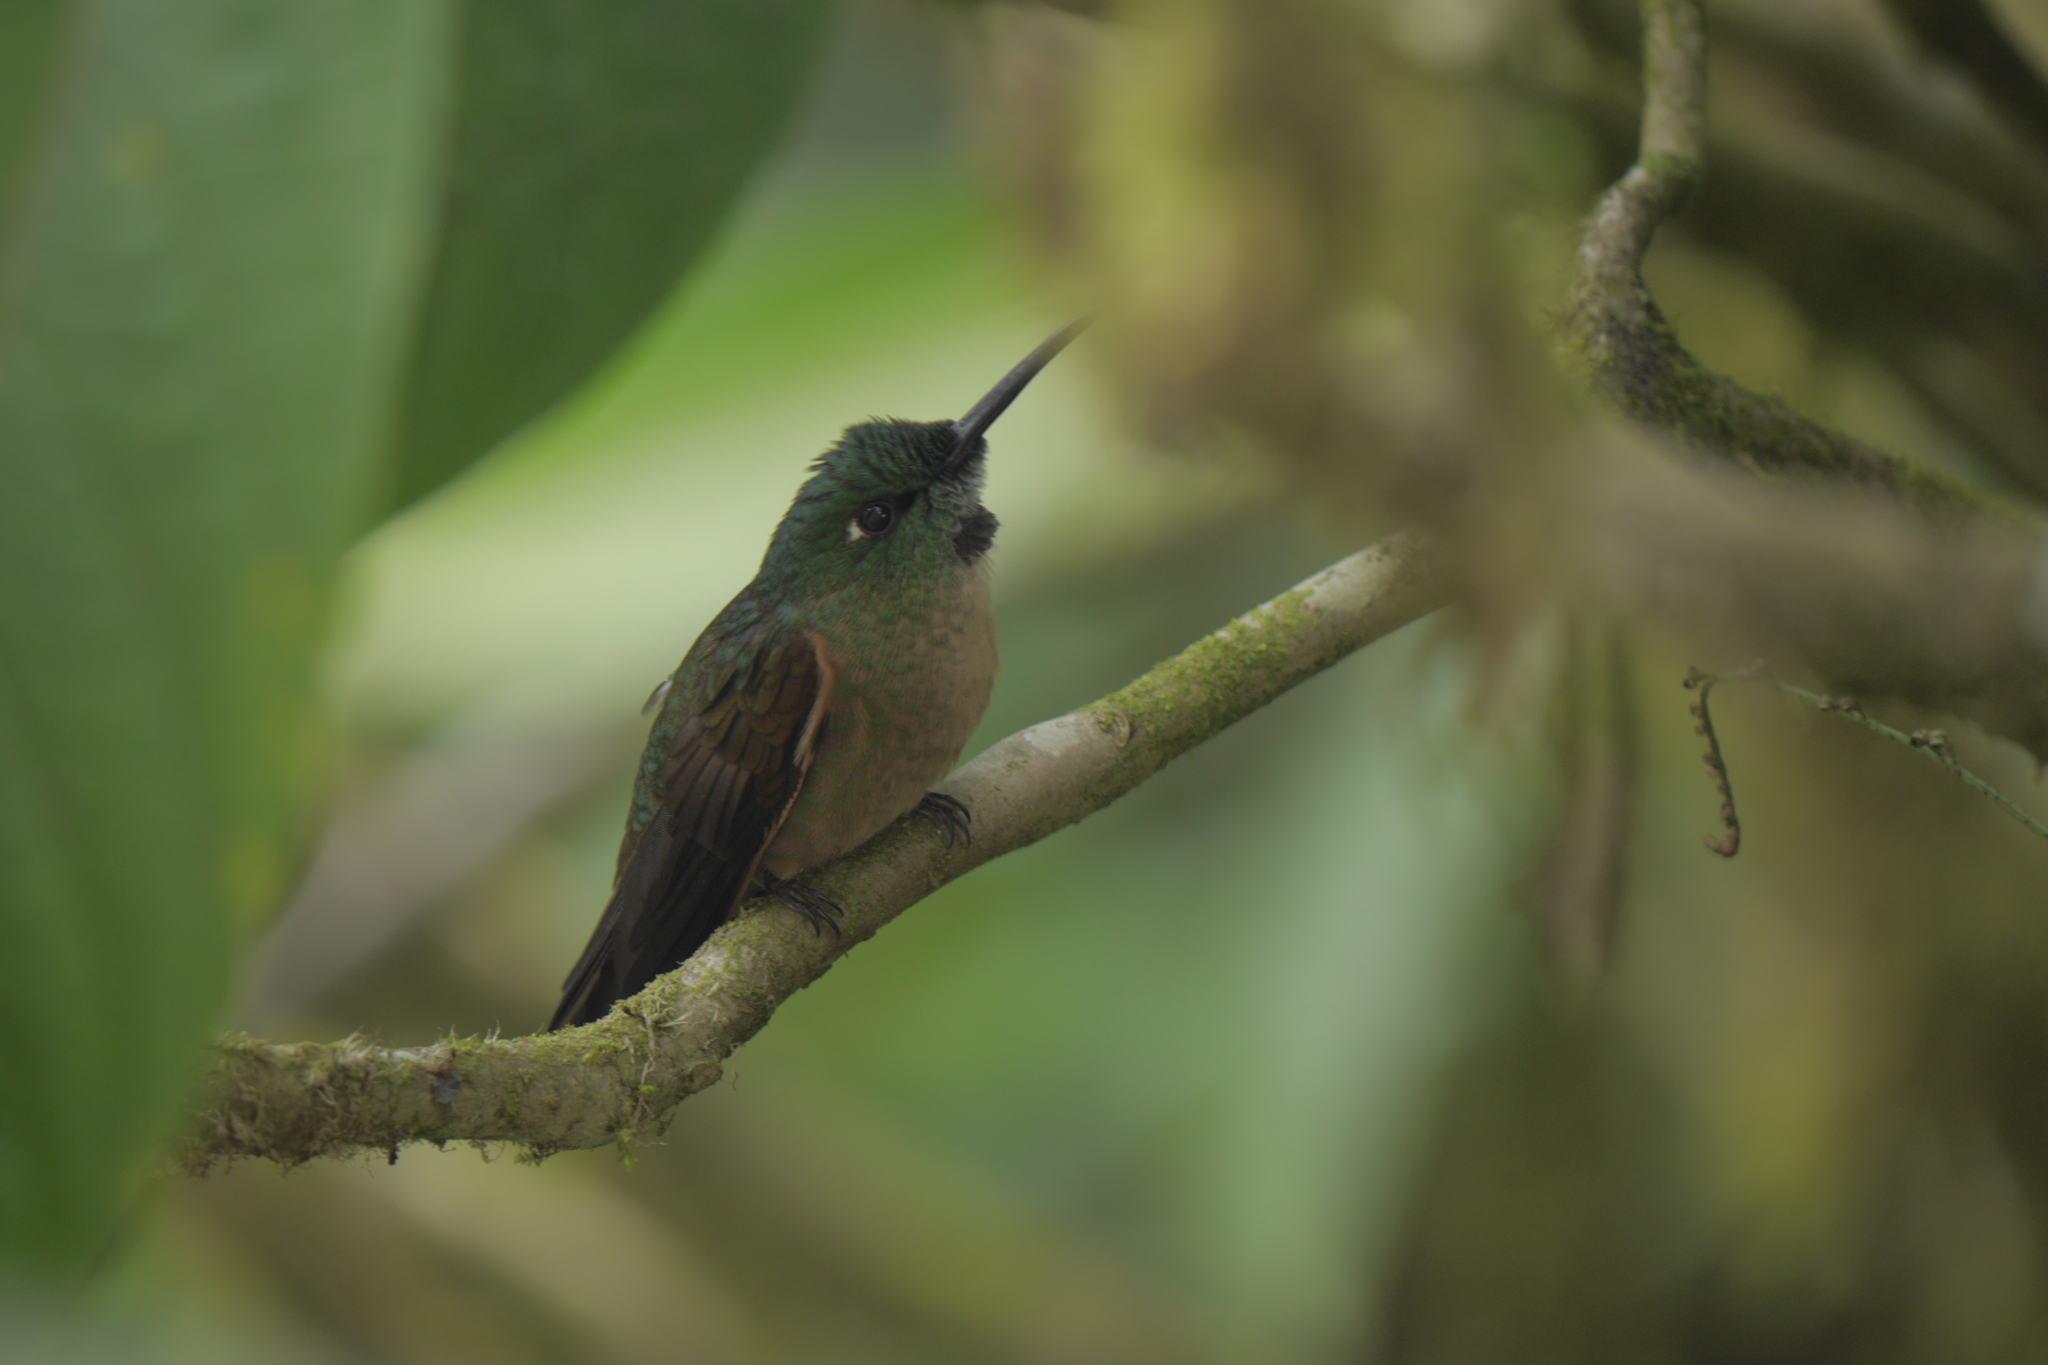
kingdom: Animalia
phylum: Chordata
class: Aves
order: Apodiformes
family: Trochilidae
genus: Heliodoxa
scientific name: Heliodoxa rubinoides
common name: Fawn-breasted brilliant
